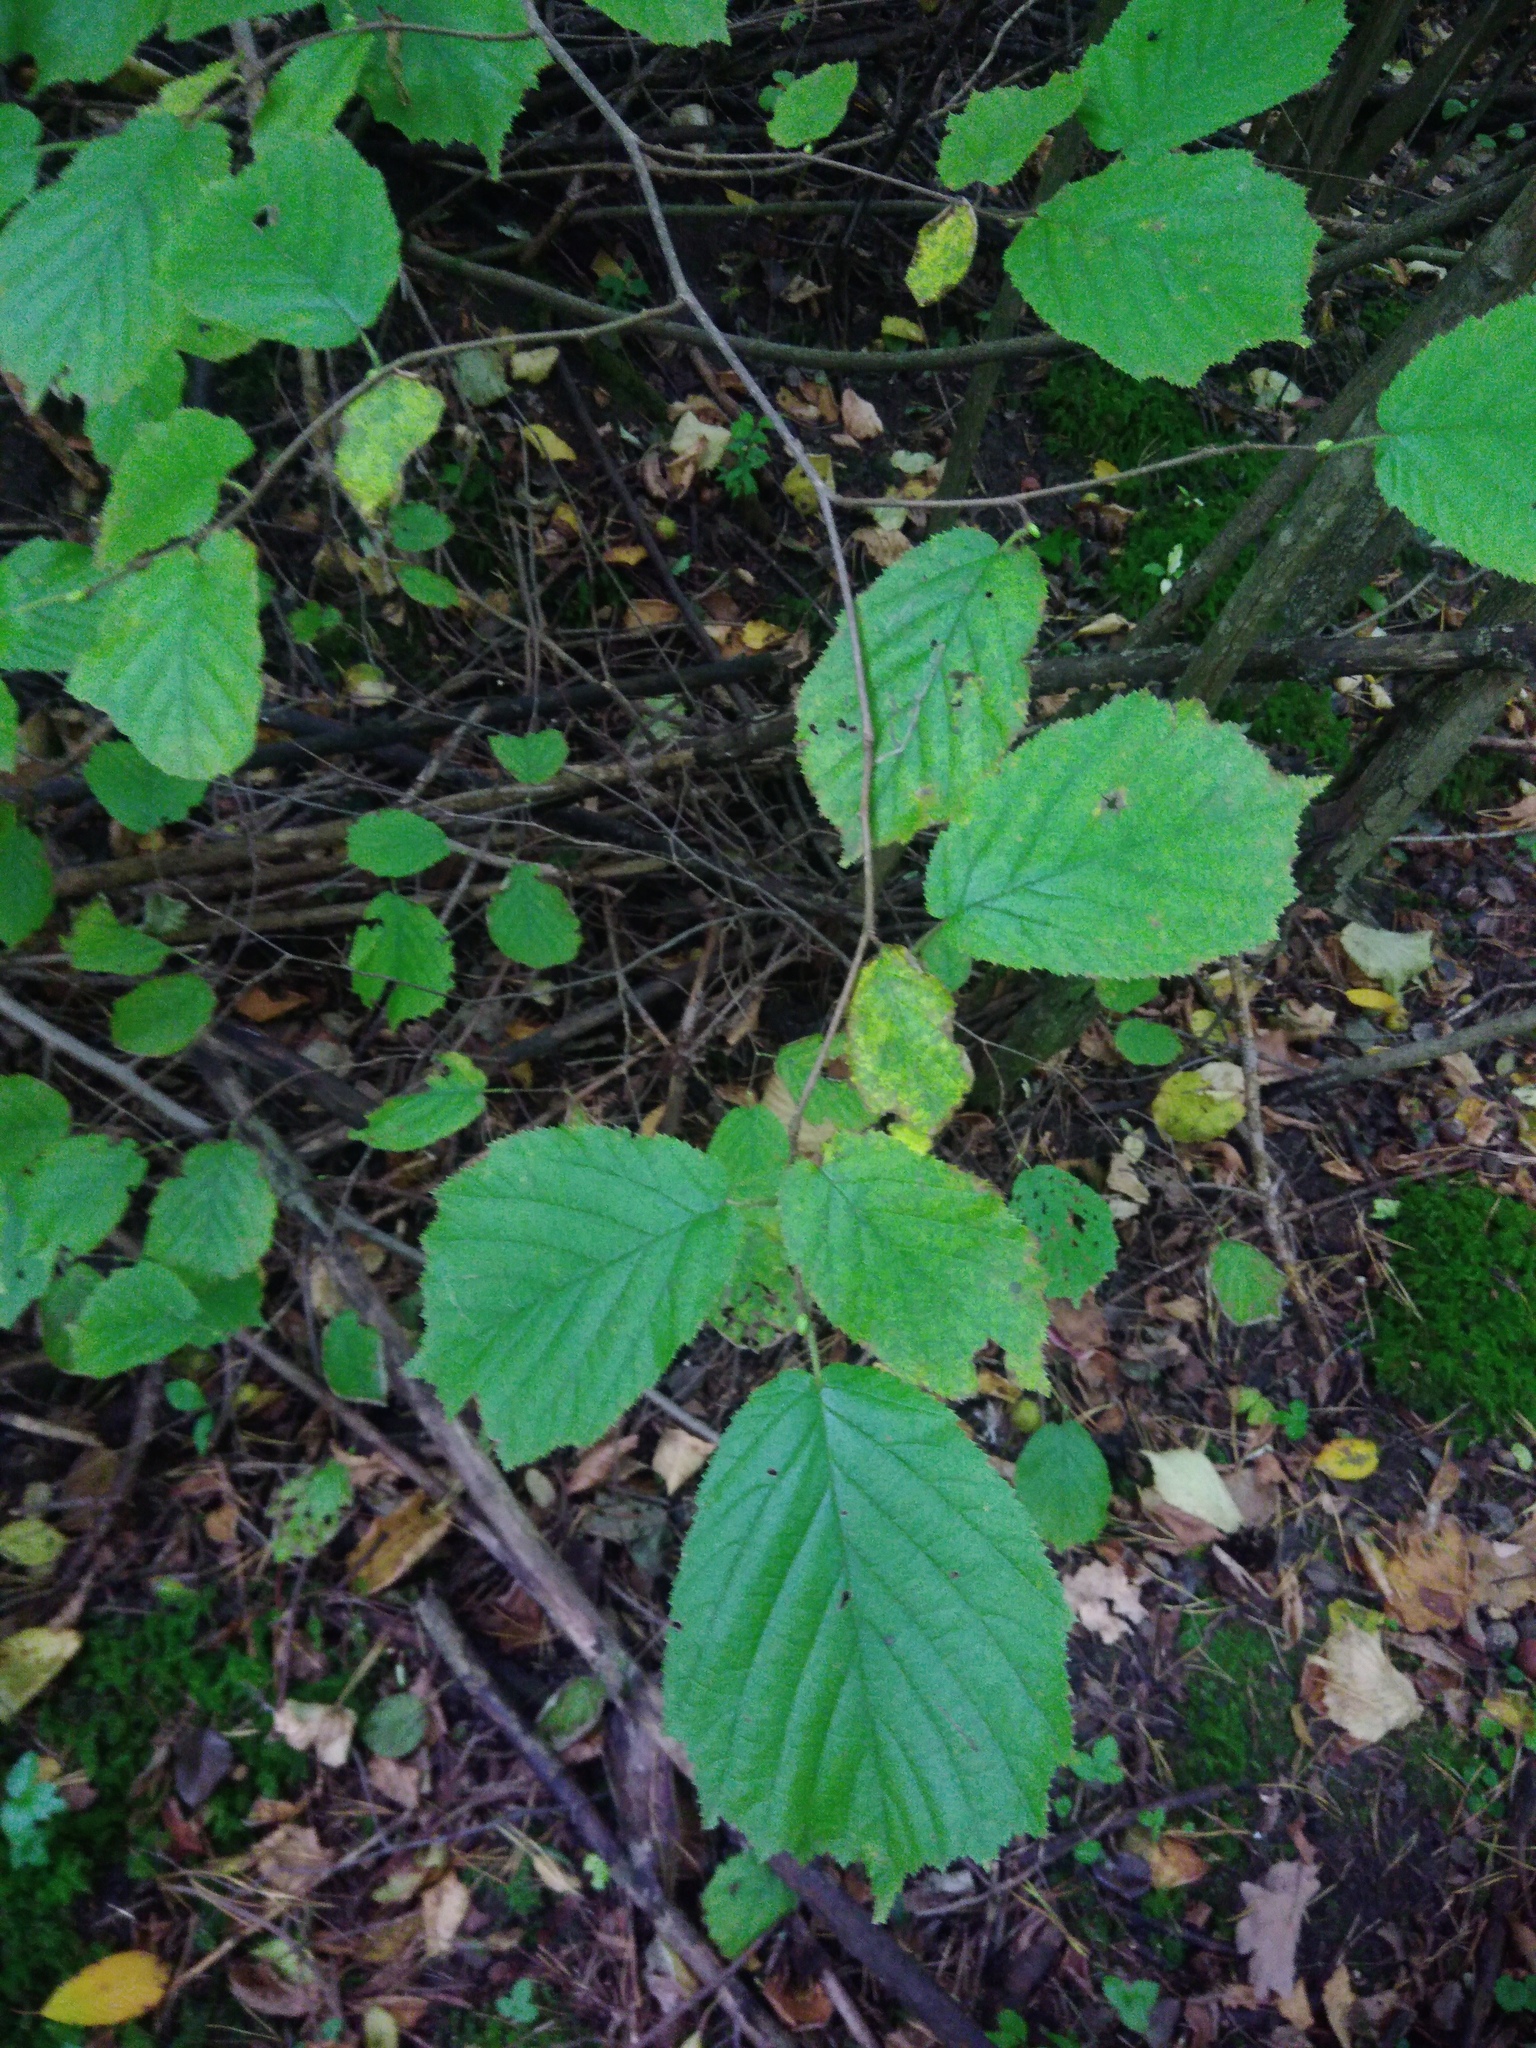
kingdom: Plantae
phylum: Tracheophyta
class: Magnoliopsida
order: Fagales
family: Betulaceae
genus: Corylus
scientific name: Corylus avellana
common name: European hazel
